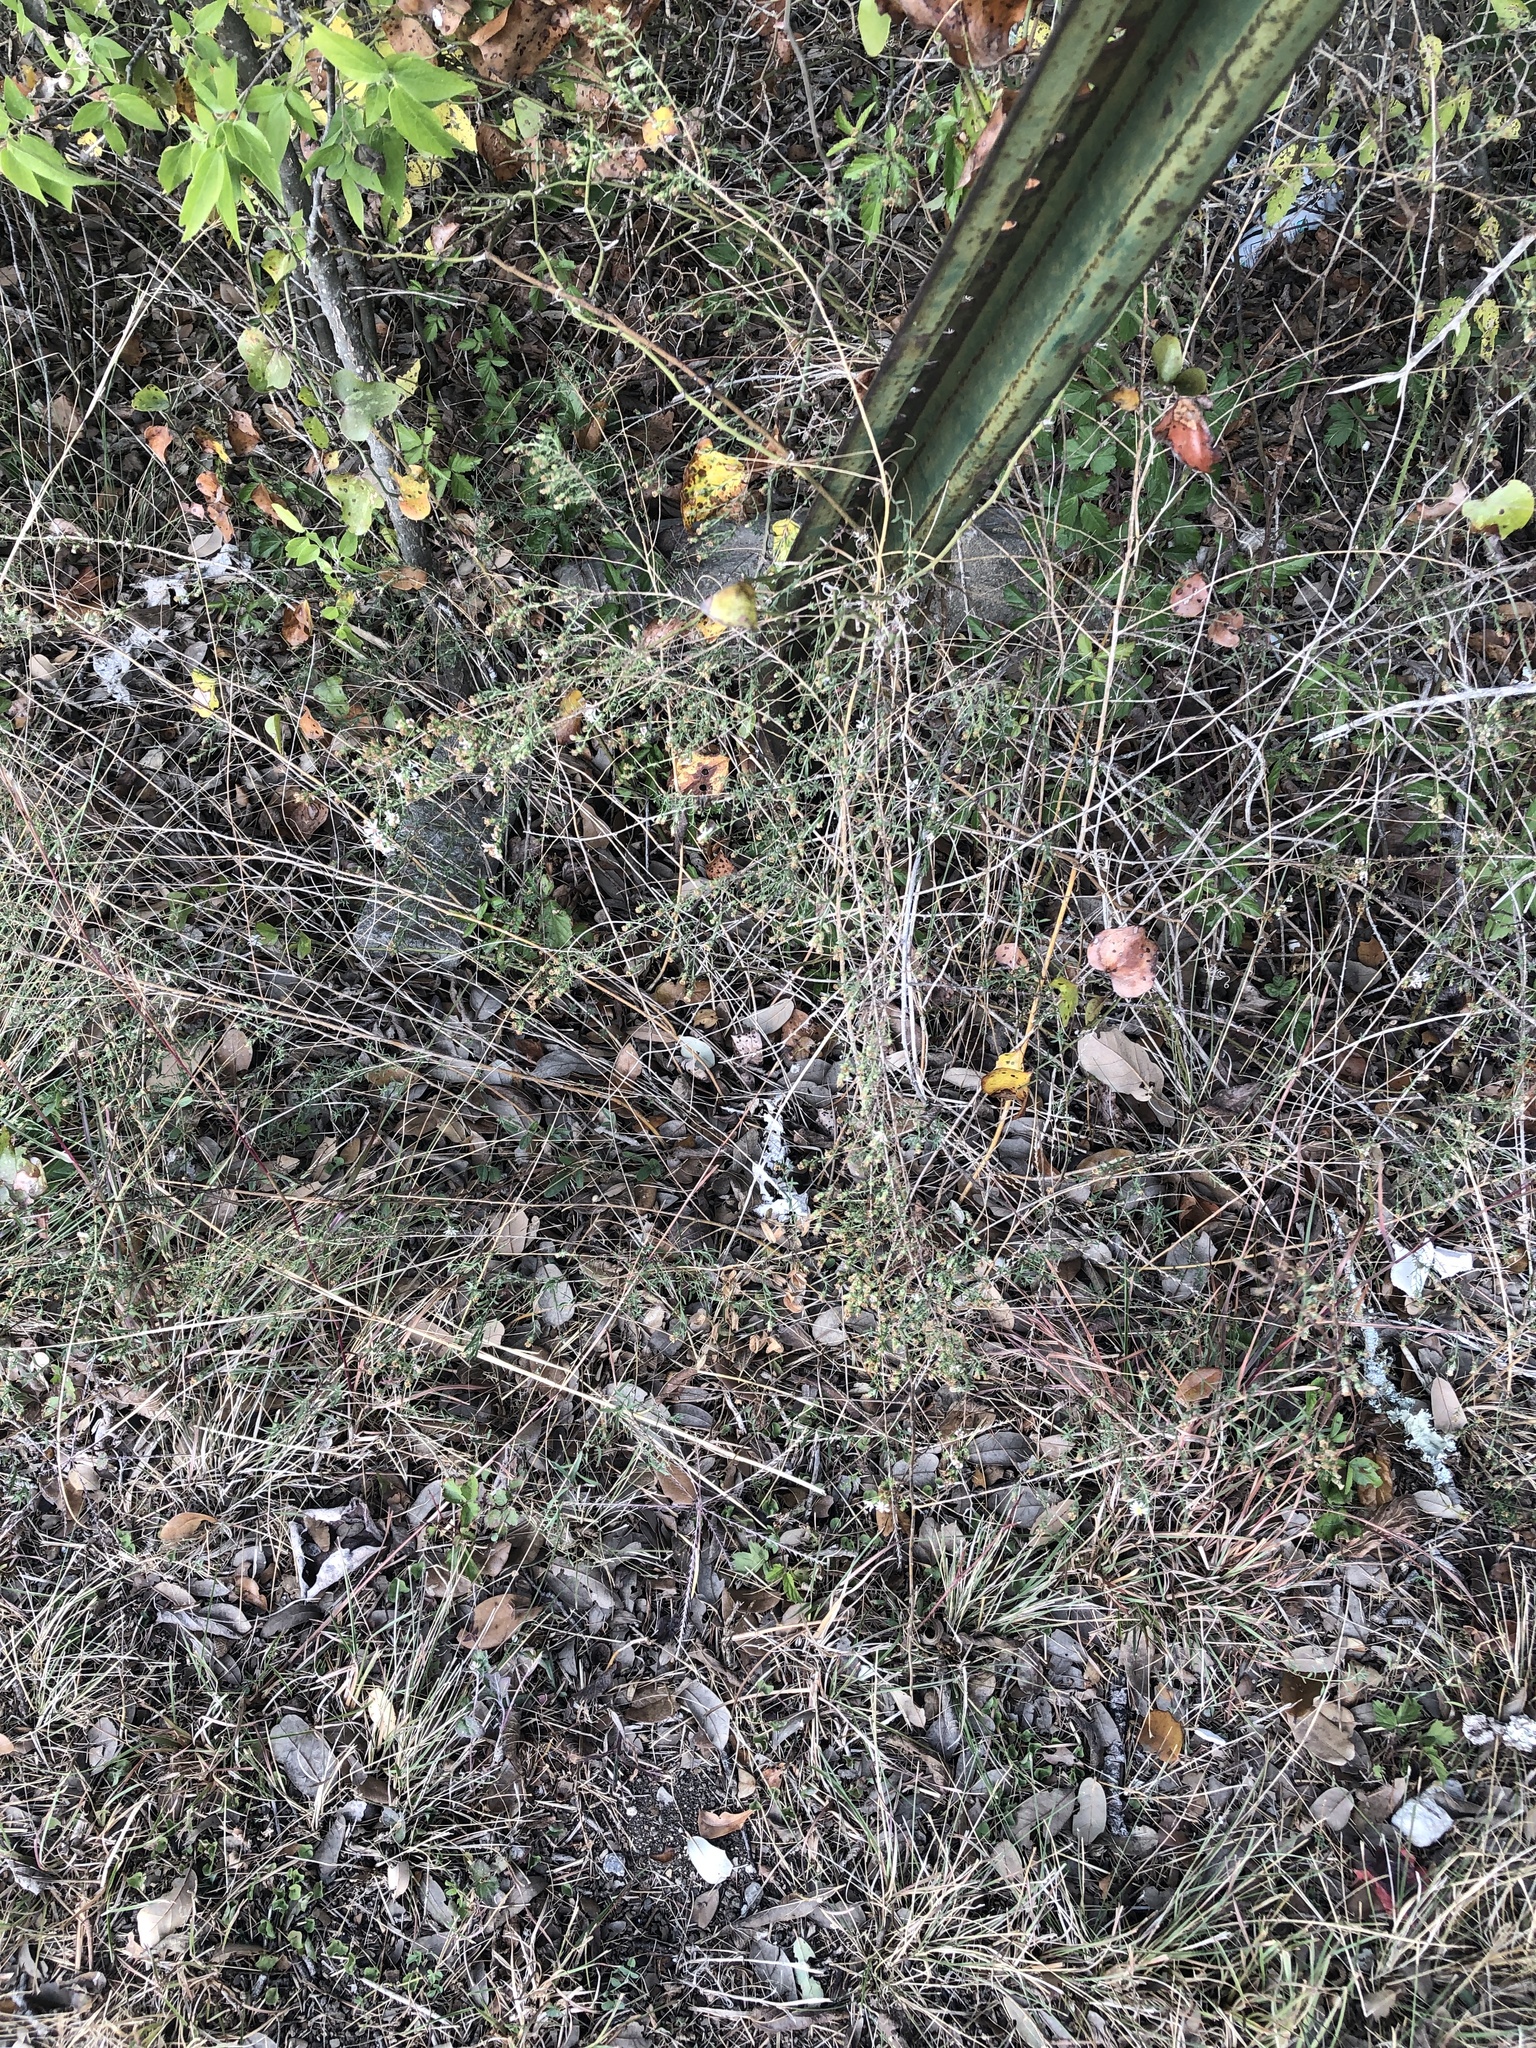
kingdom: Plantae
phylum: Tracheophyta
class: Magnoliopsida
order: Asterales
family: Asteraceae
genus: Symphyotrichum
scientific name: Symphyotrichum ericoides
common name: Heath aster
